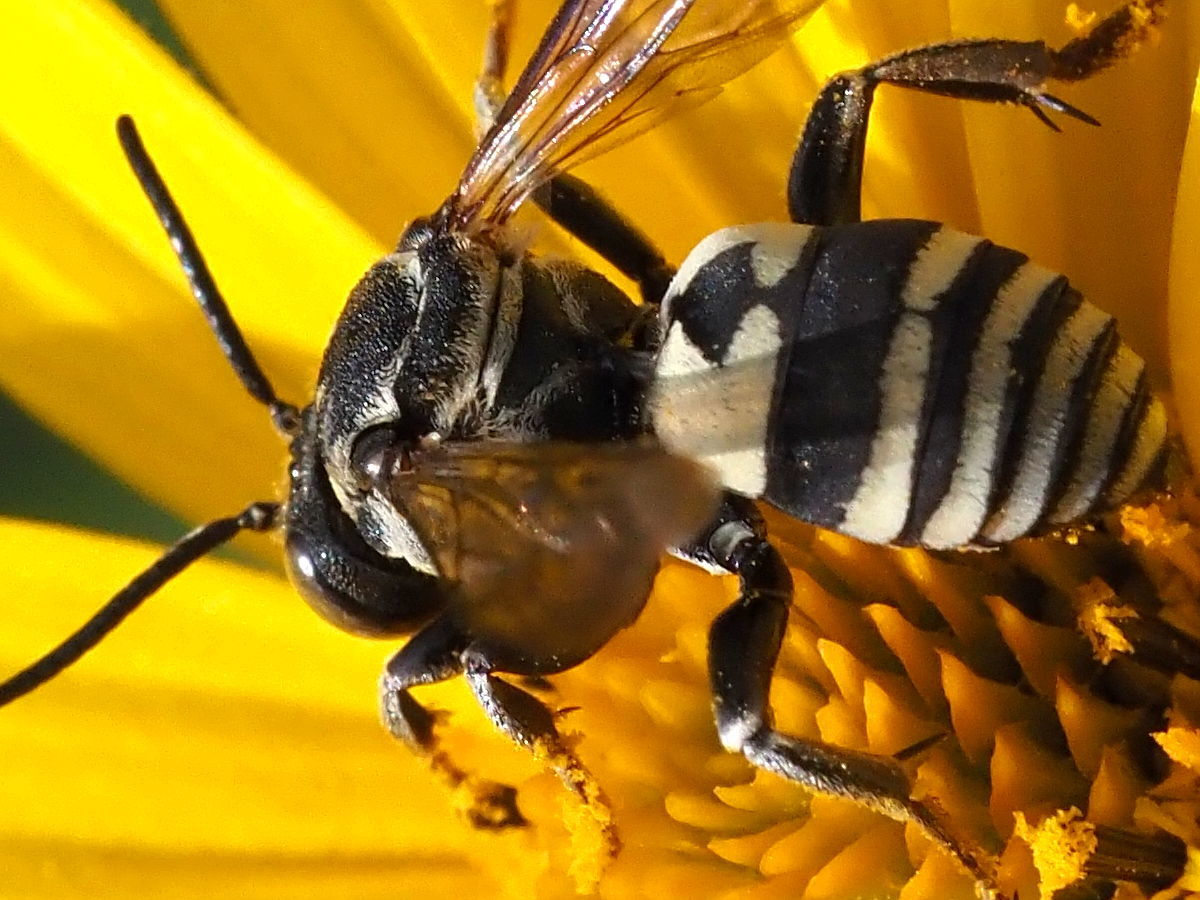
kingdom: Animalia
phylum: Arthropoda
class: Insecta
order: Hymenoptera
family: Apidae
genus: Triepeolus
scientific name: Triepeolus lunatus
